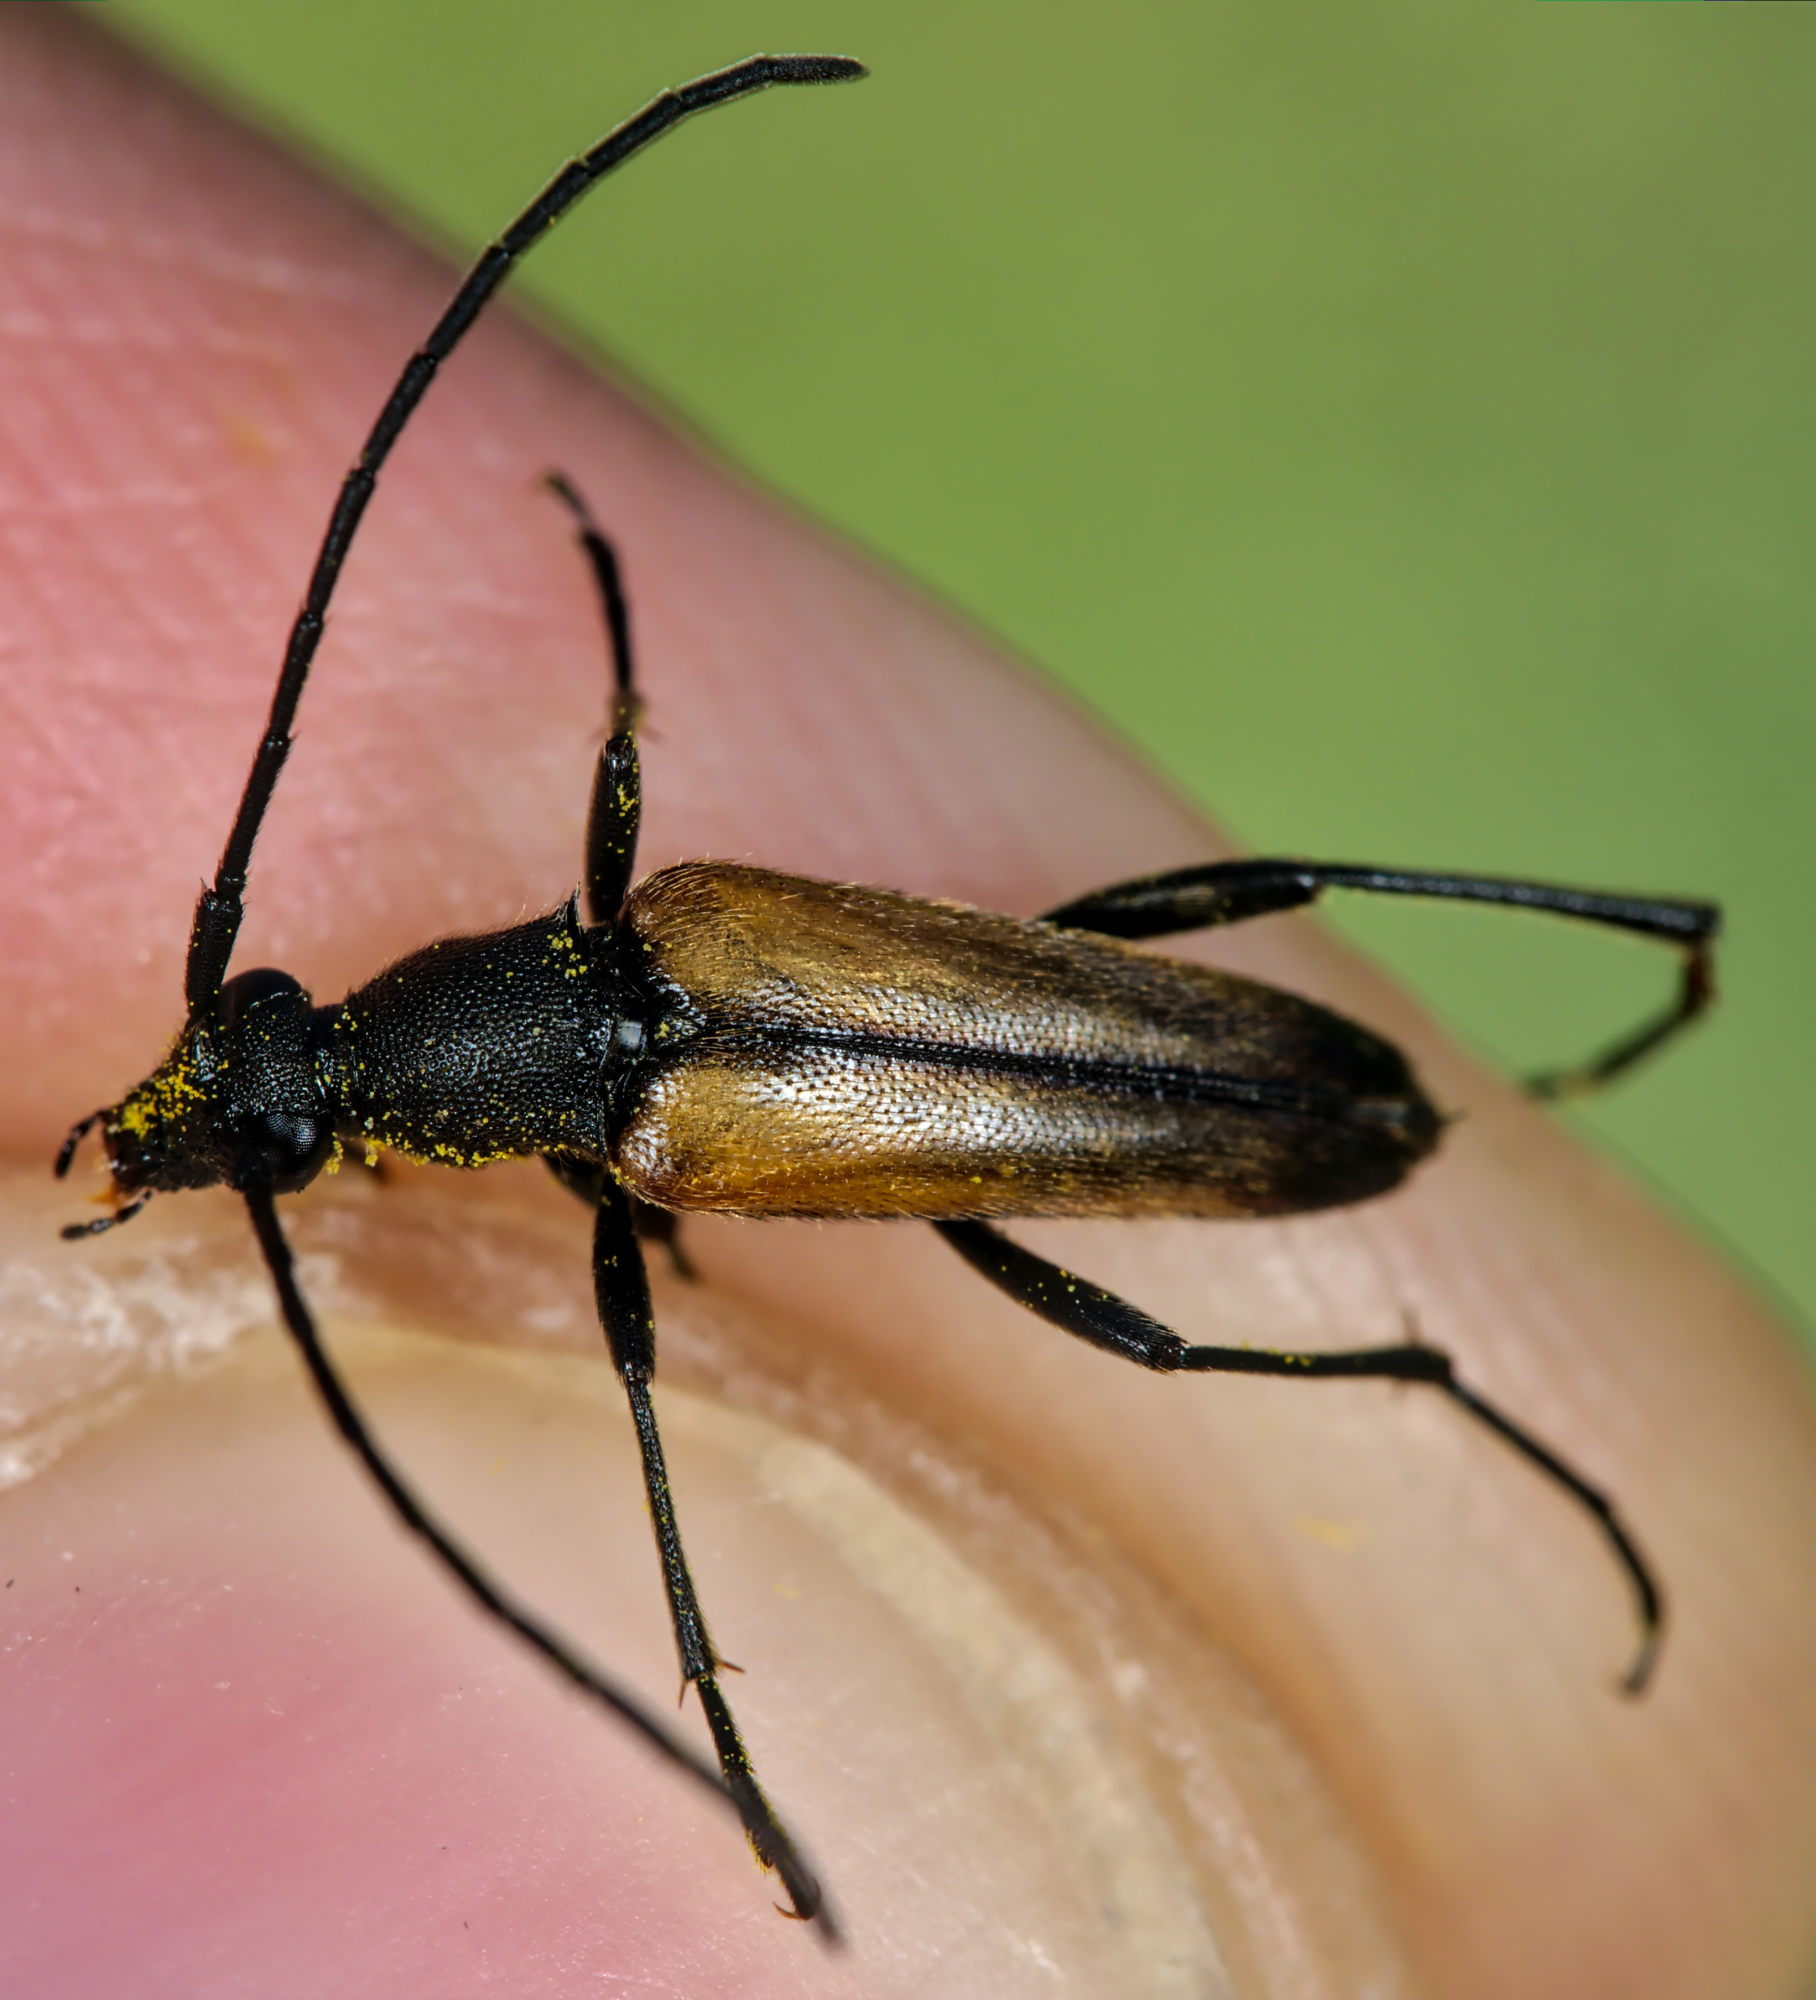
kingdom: Animalia
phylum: Arthropoda
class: Insecta
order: Coleoptera
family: Cerambycidae
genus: Stenurella
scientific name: Stenurella melanura
